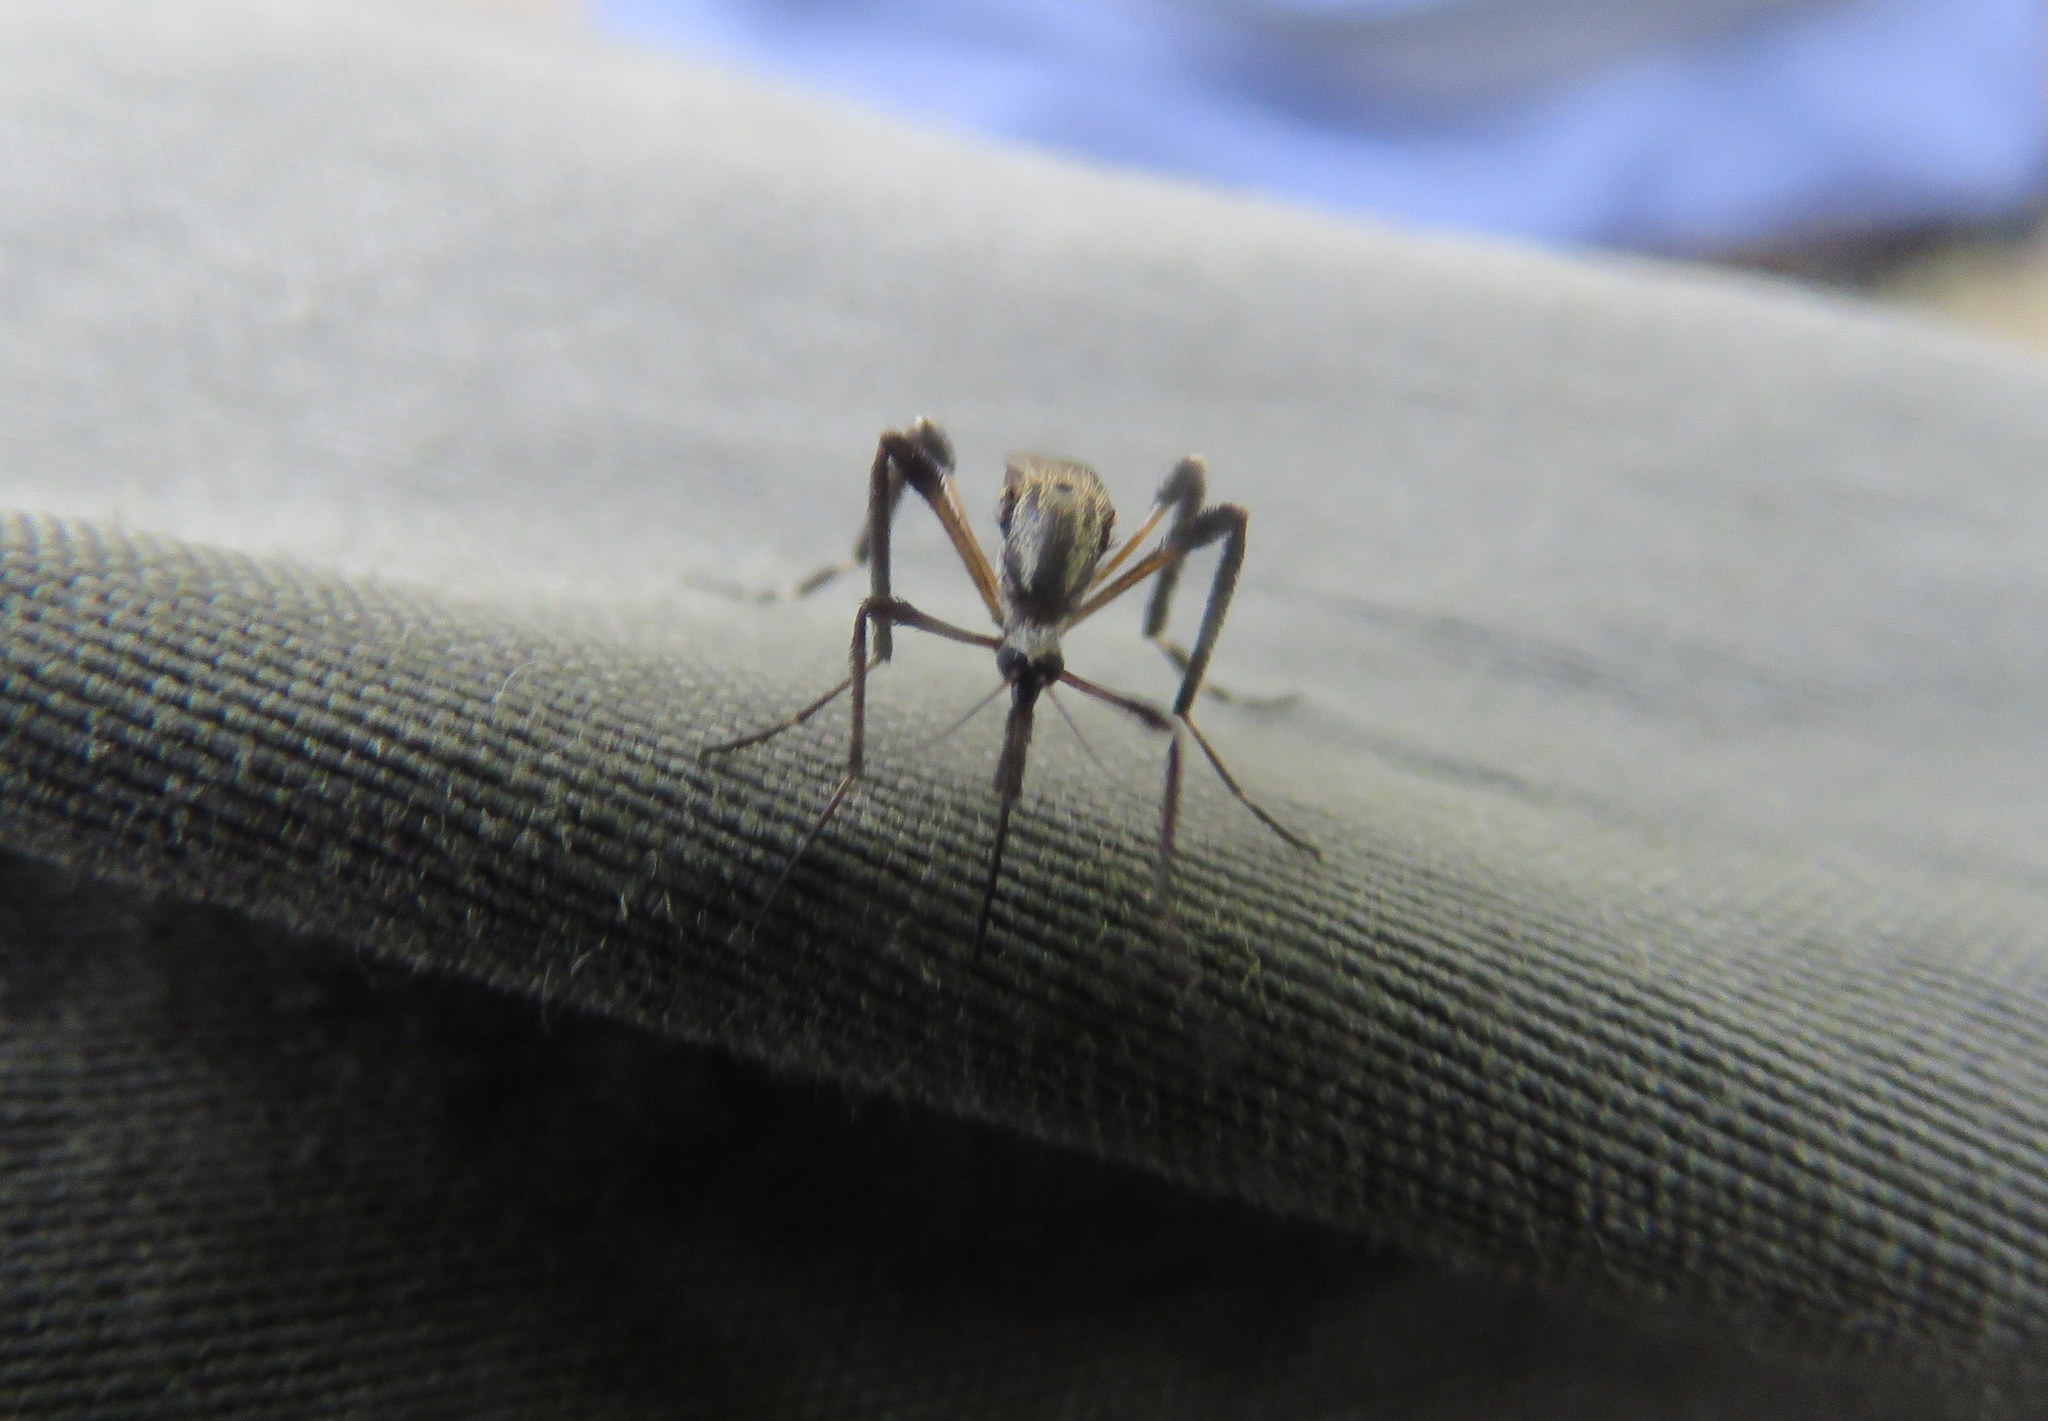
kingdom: Animalia
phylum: Arthropoda
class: Insecta
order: Diptera
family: Culicidae
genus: Psorophora
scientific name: Psorophora holmbergii
